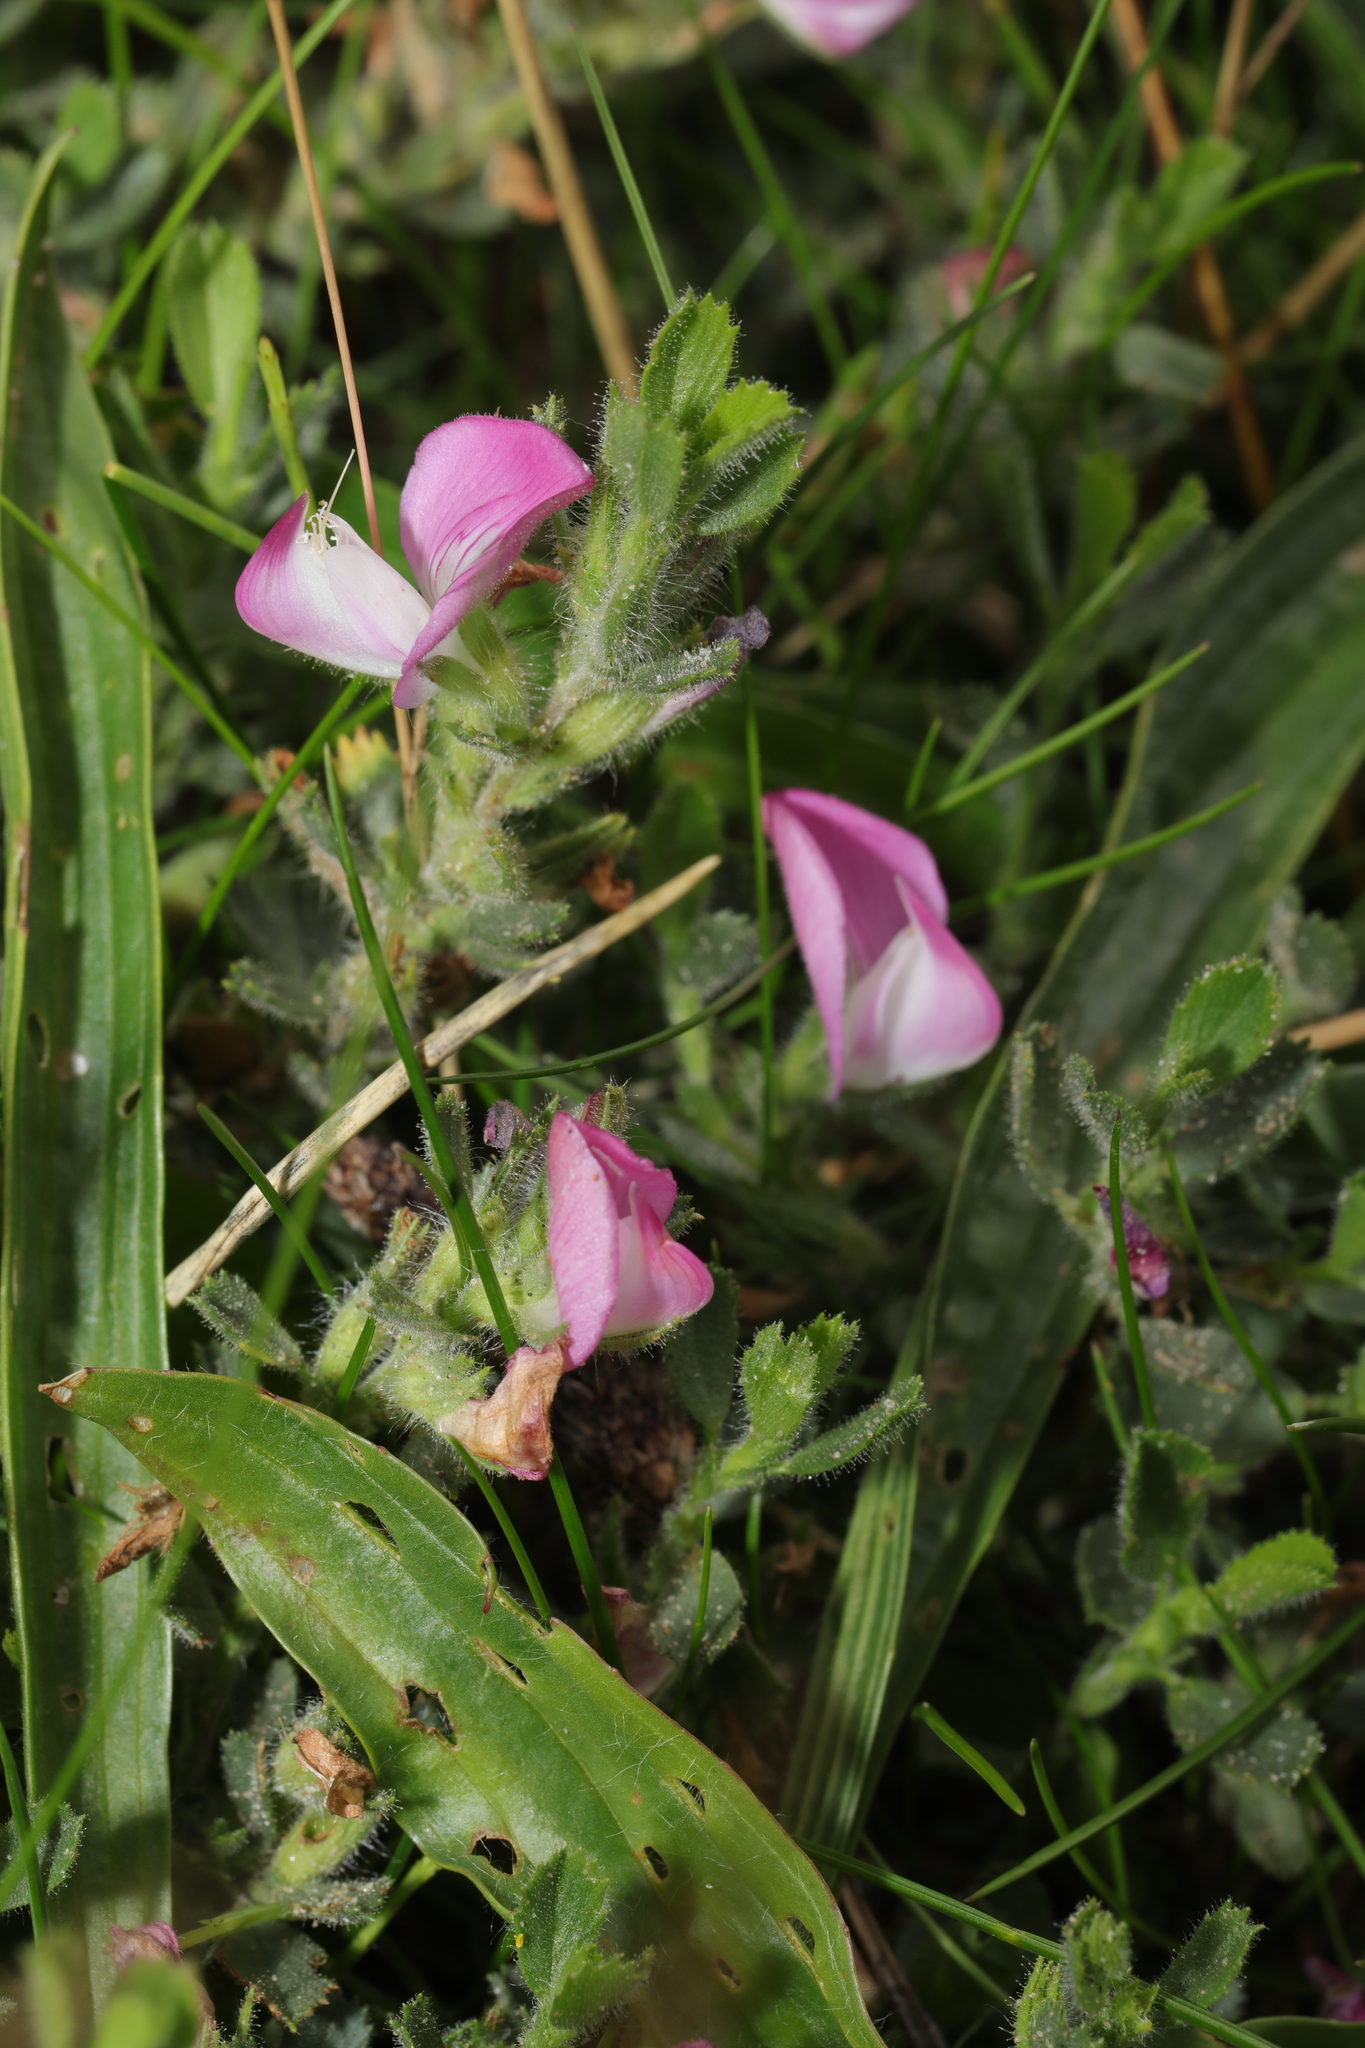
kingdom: Plantae
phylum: Tracheophyta
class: Magnoliopsida
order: Fabales
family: Fabaceae
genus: Ononis
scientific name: Ononis spinosa
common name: Spiny restharrow
